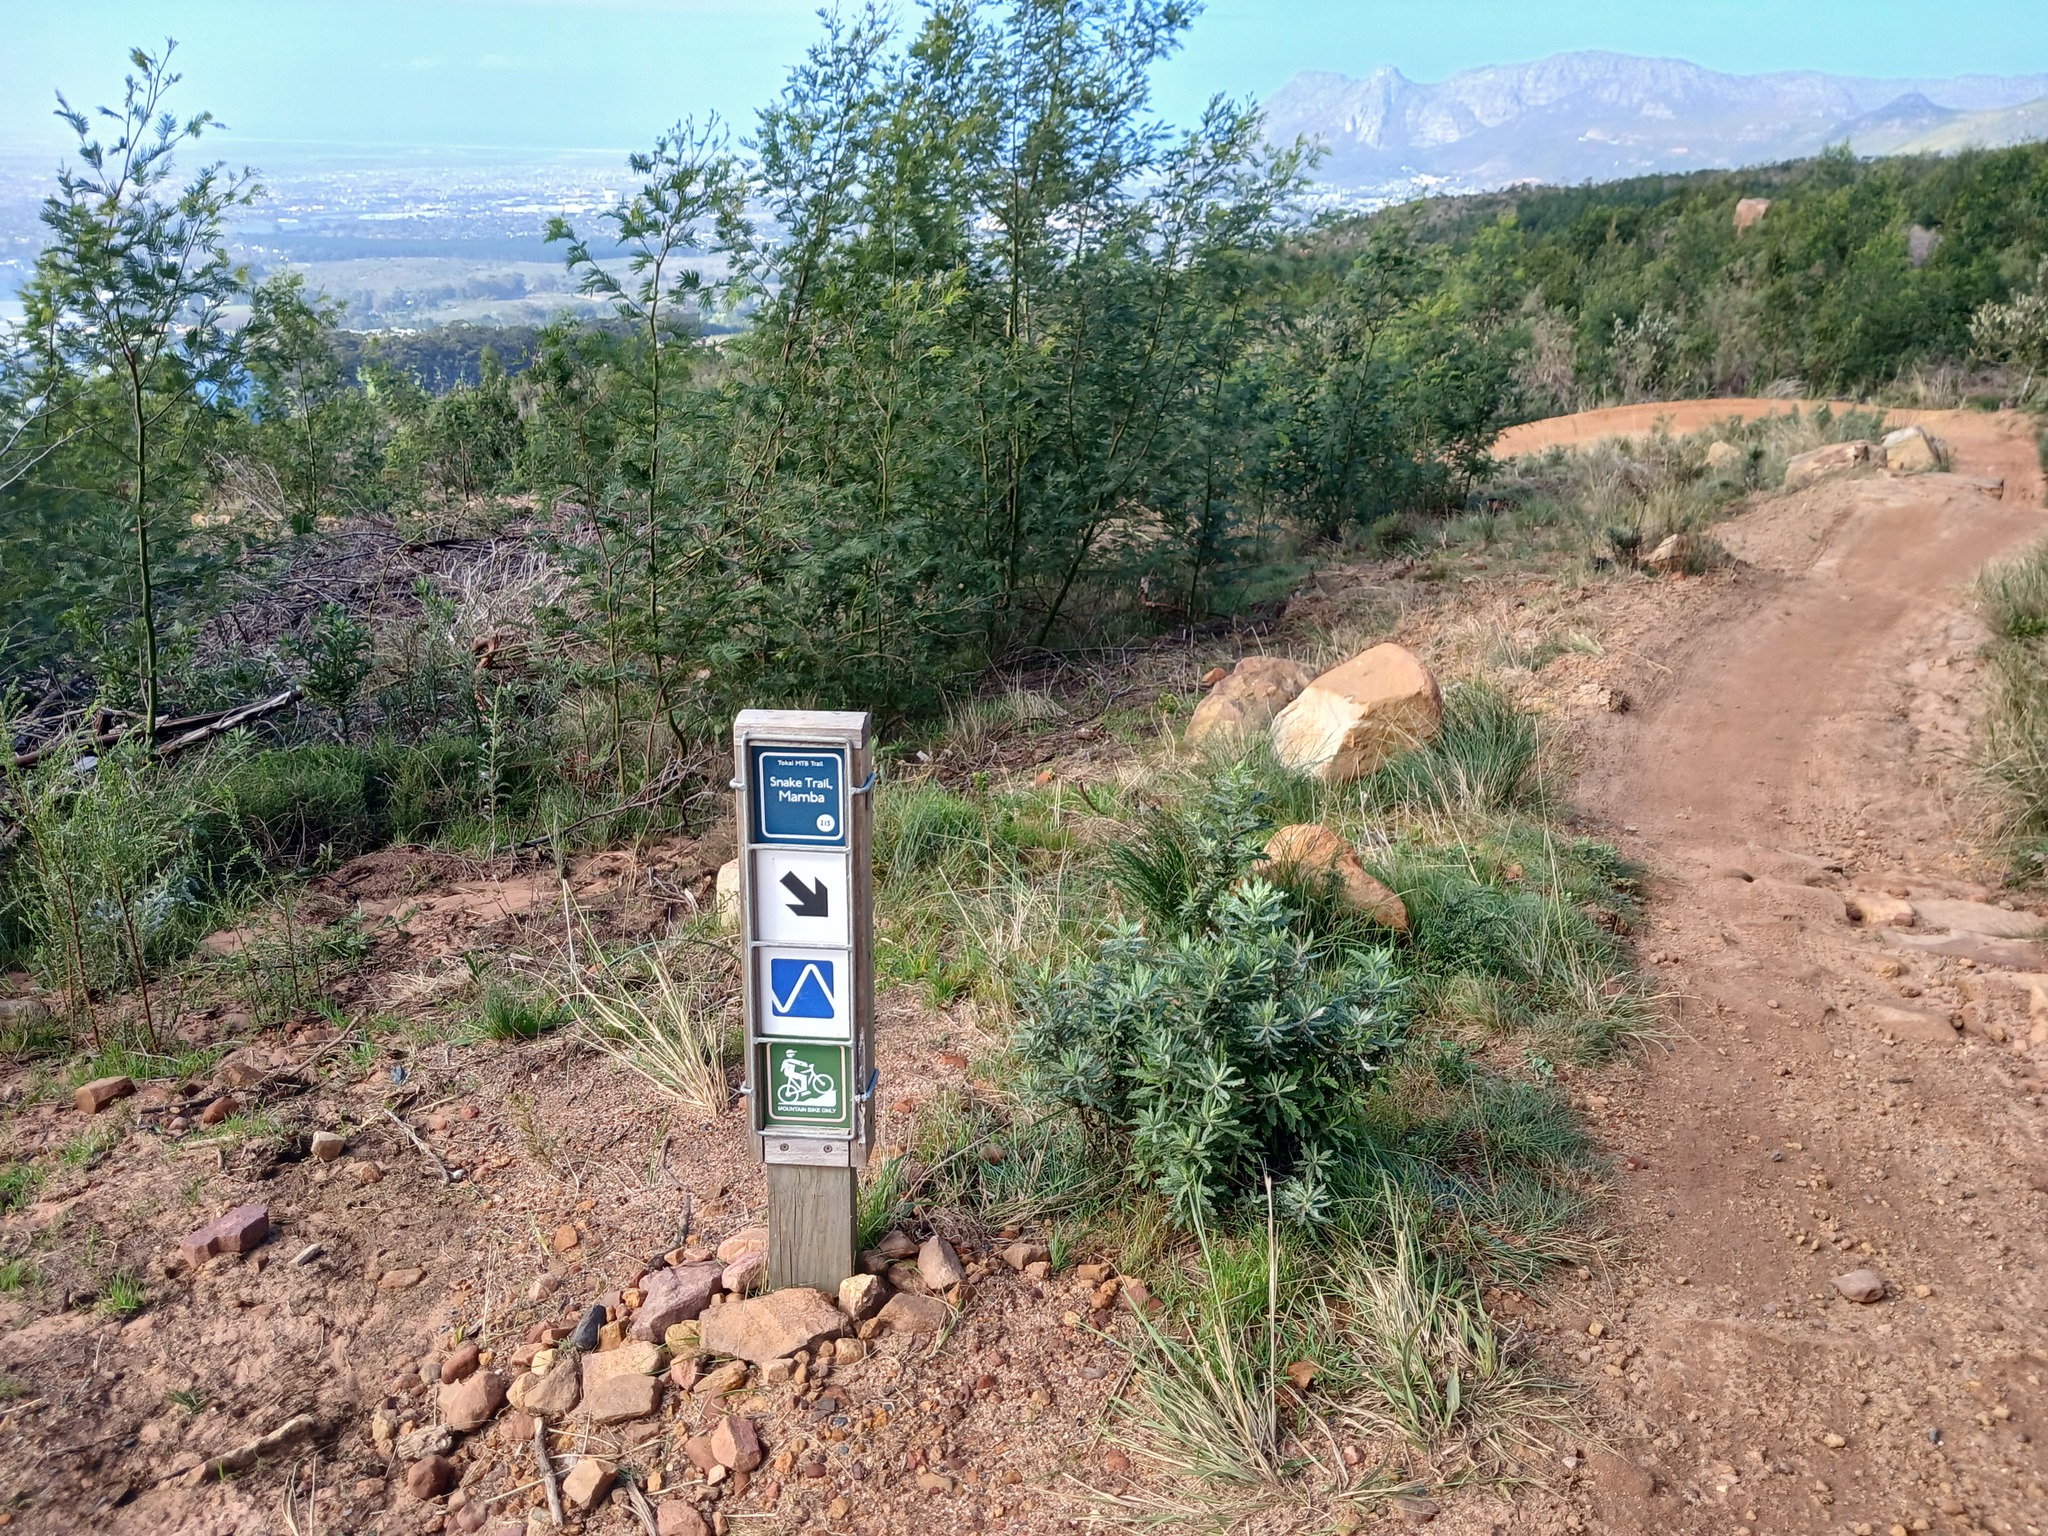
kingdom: Plantae
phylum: Tracheophyta
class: Magnoliopsida
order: Asterales
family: Asteraceae
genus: Senecio
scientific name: Senecio pterophorus
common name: Shoddy ragwort
